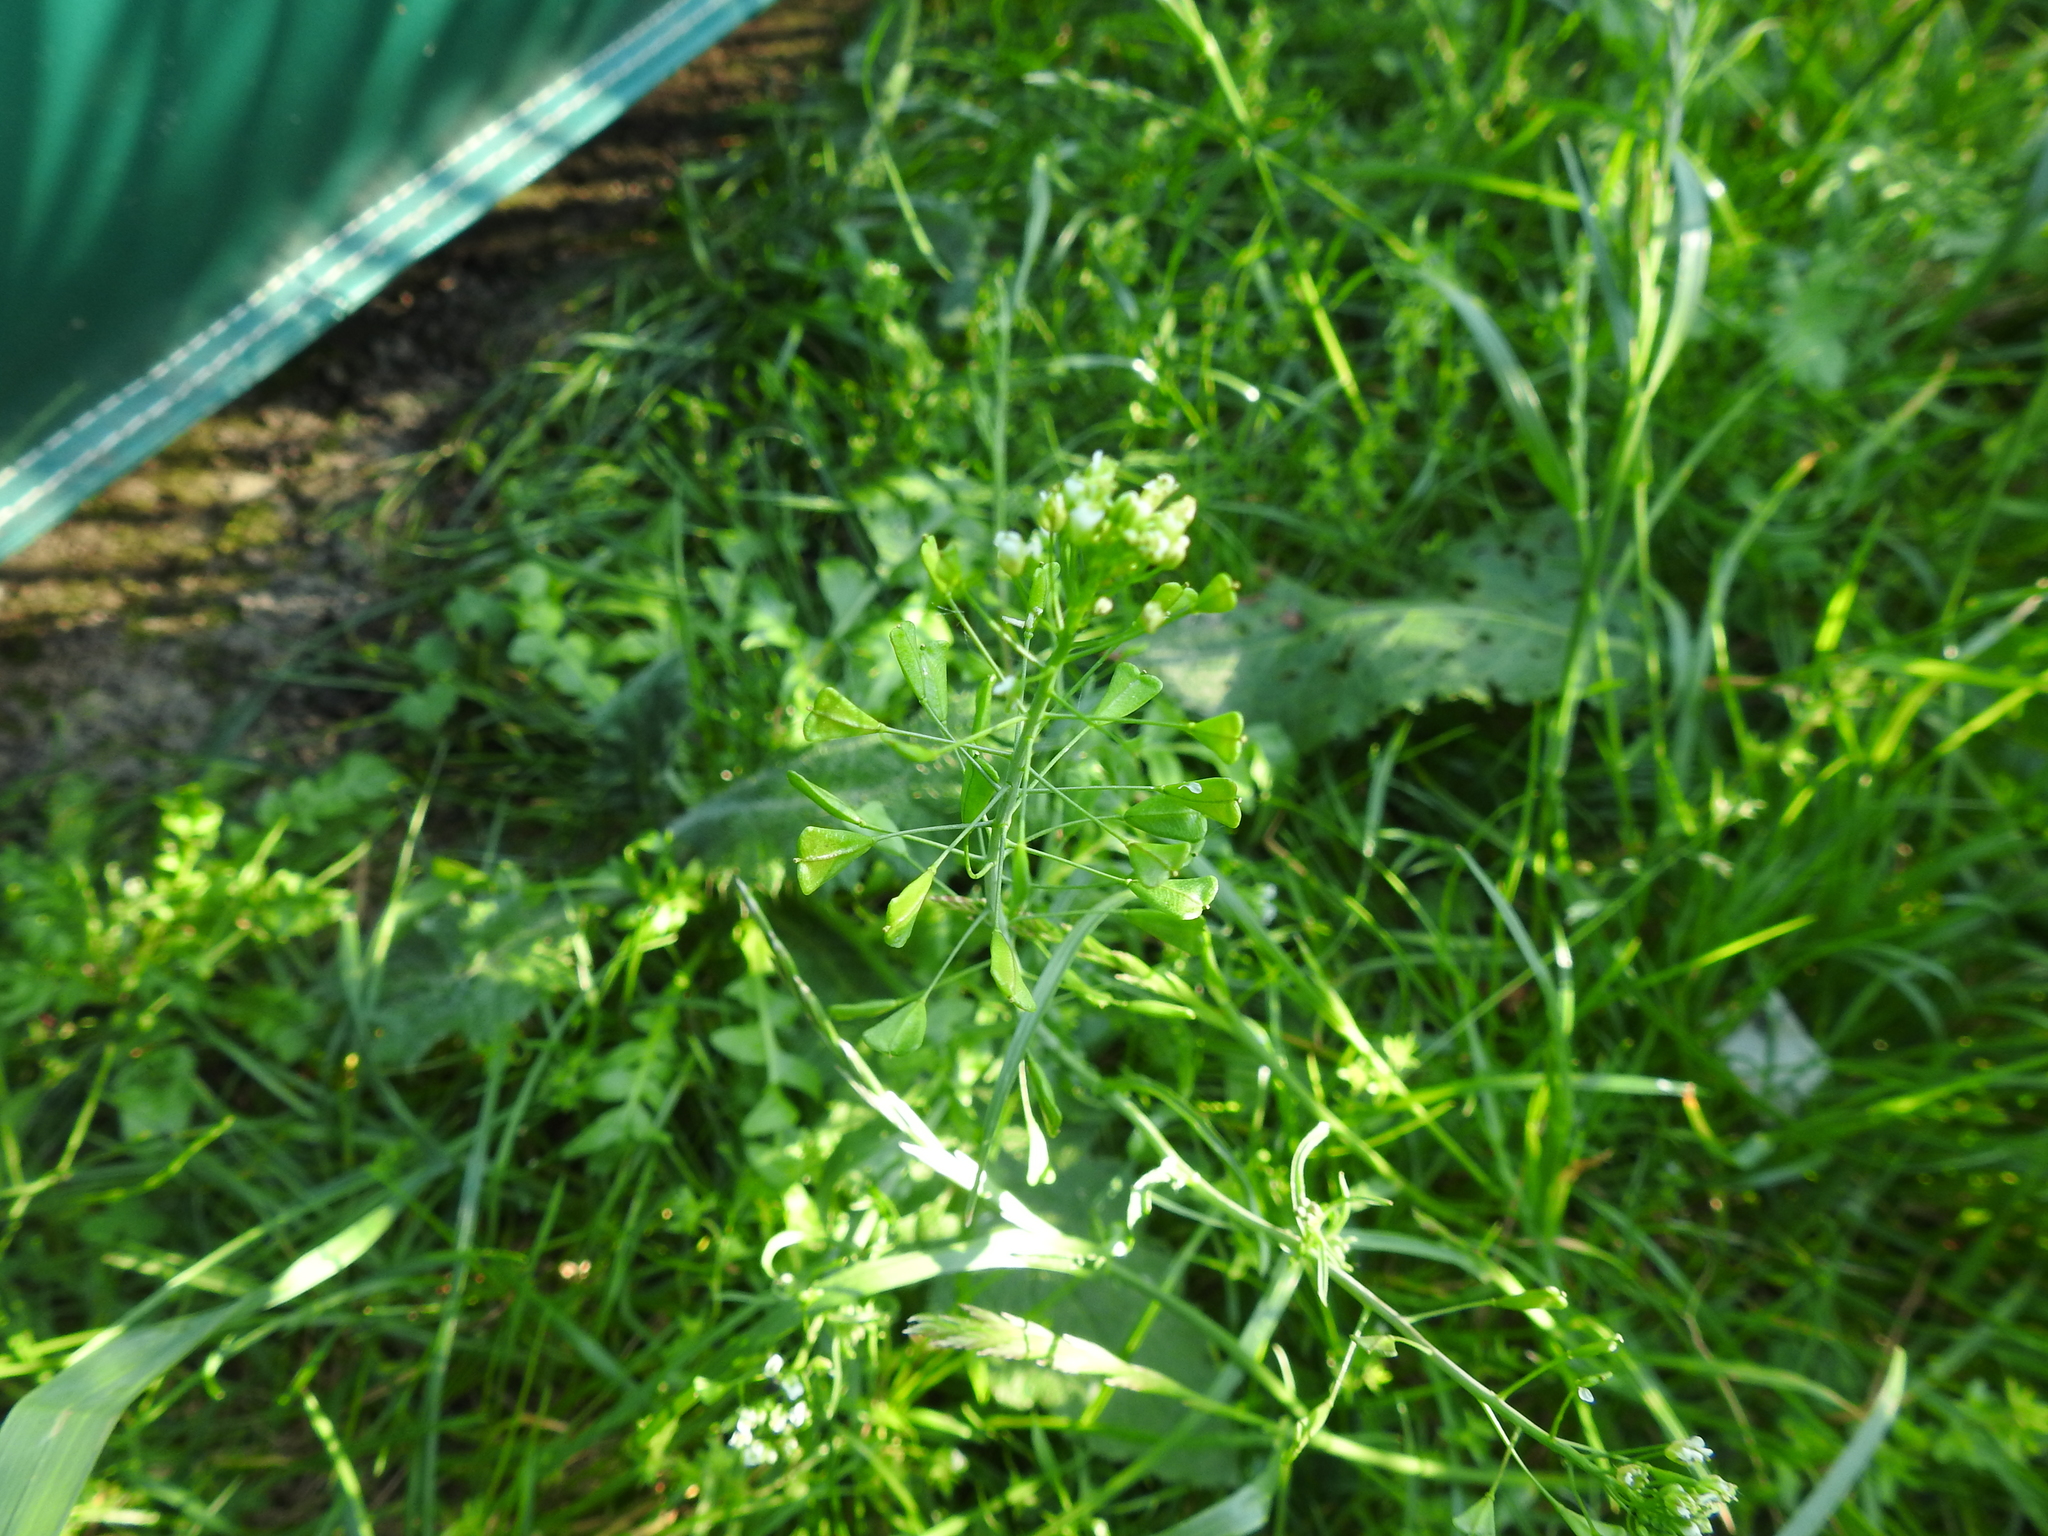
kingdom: Plantae
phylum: Tracheophyta
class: Magnoliopsida
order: Brassicales
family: Brassicaceae
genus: Capsella
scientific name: Capsella bursa-pastoris
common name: Shepherd's purse
